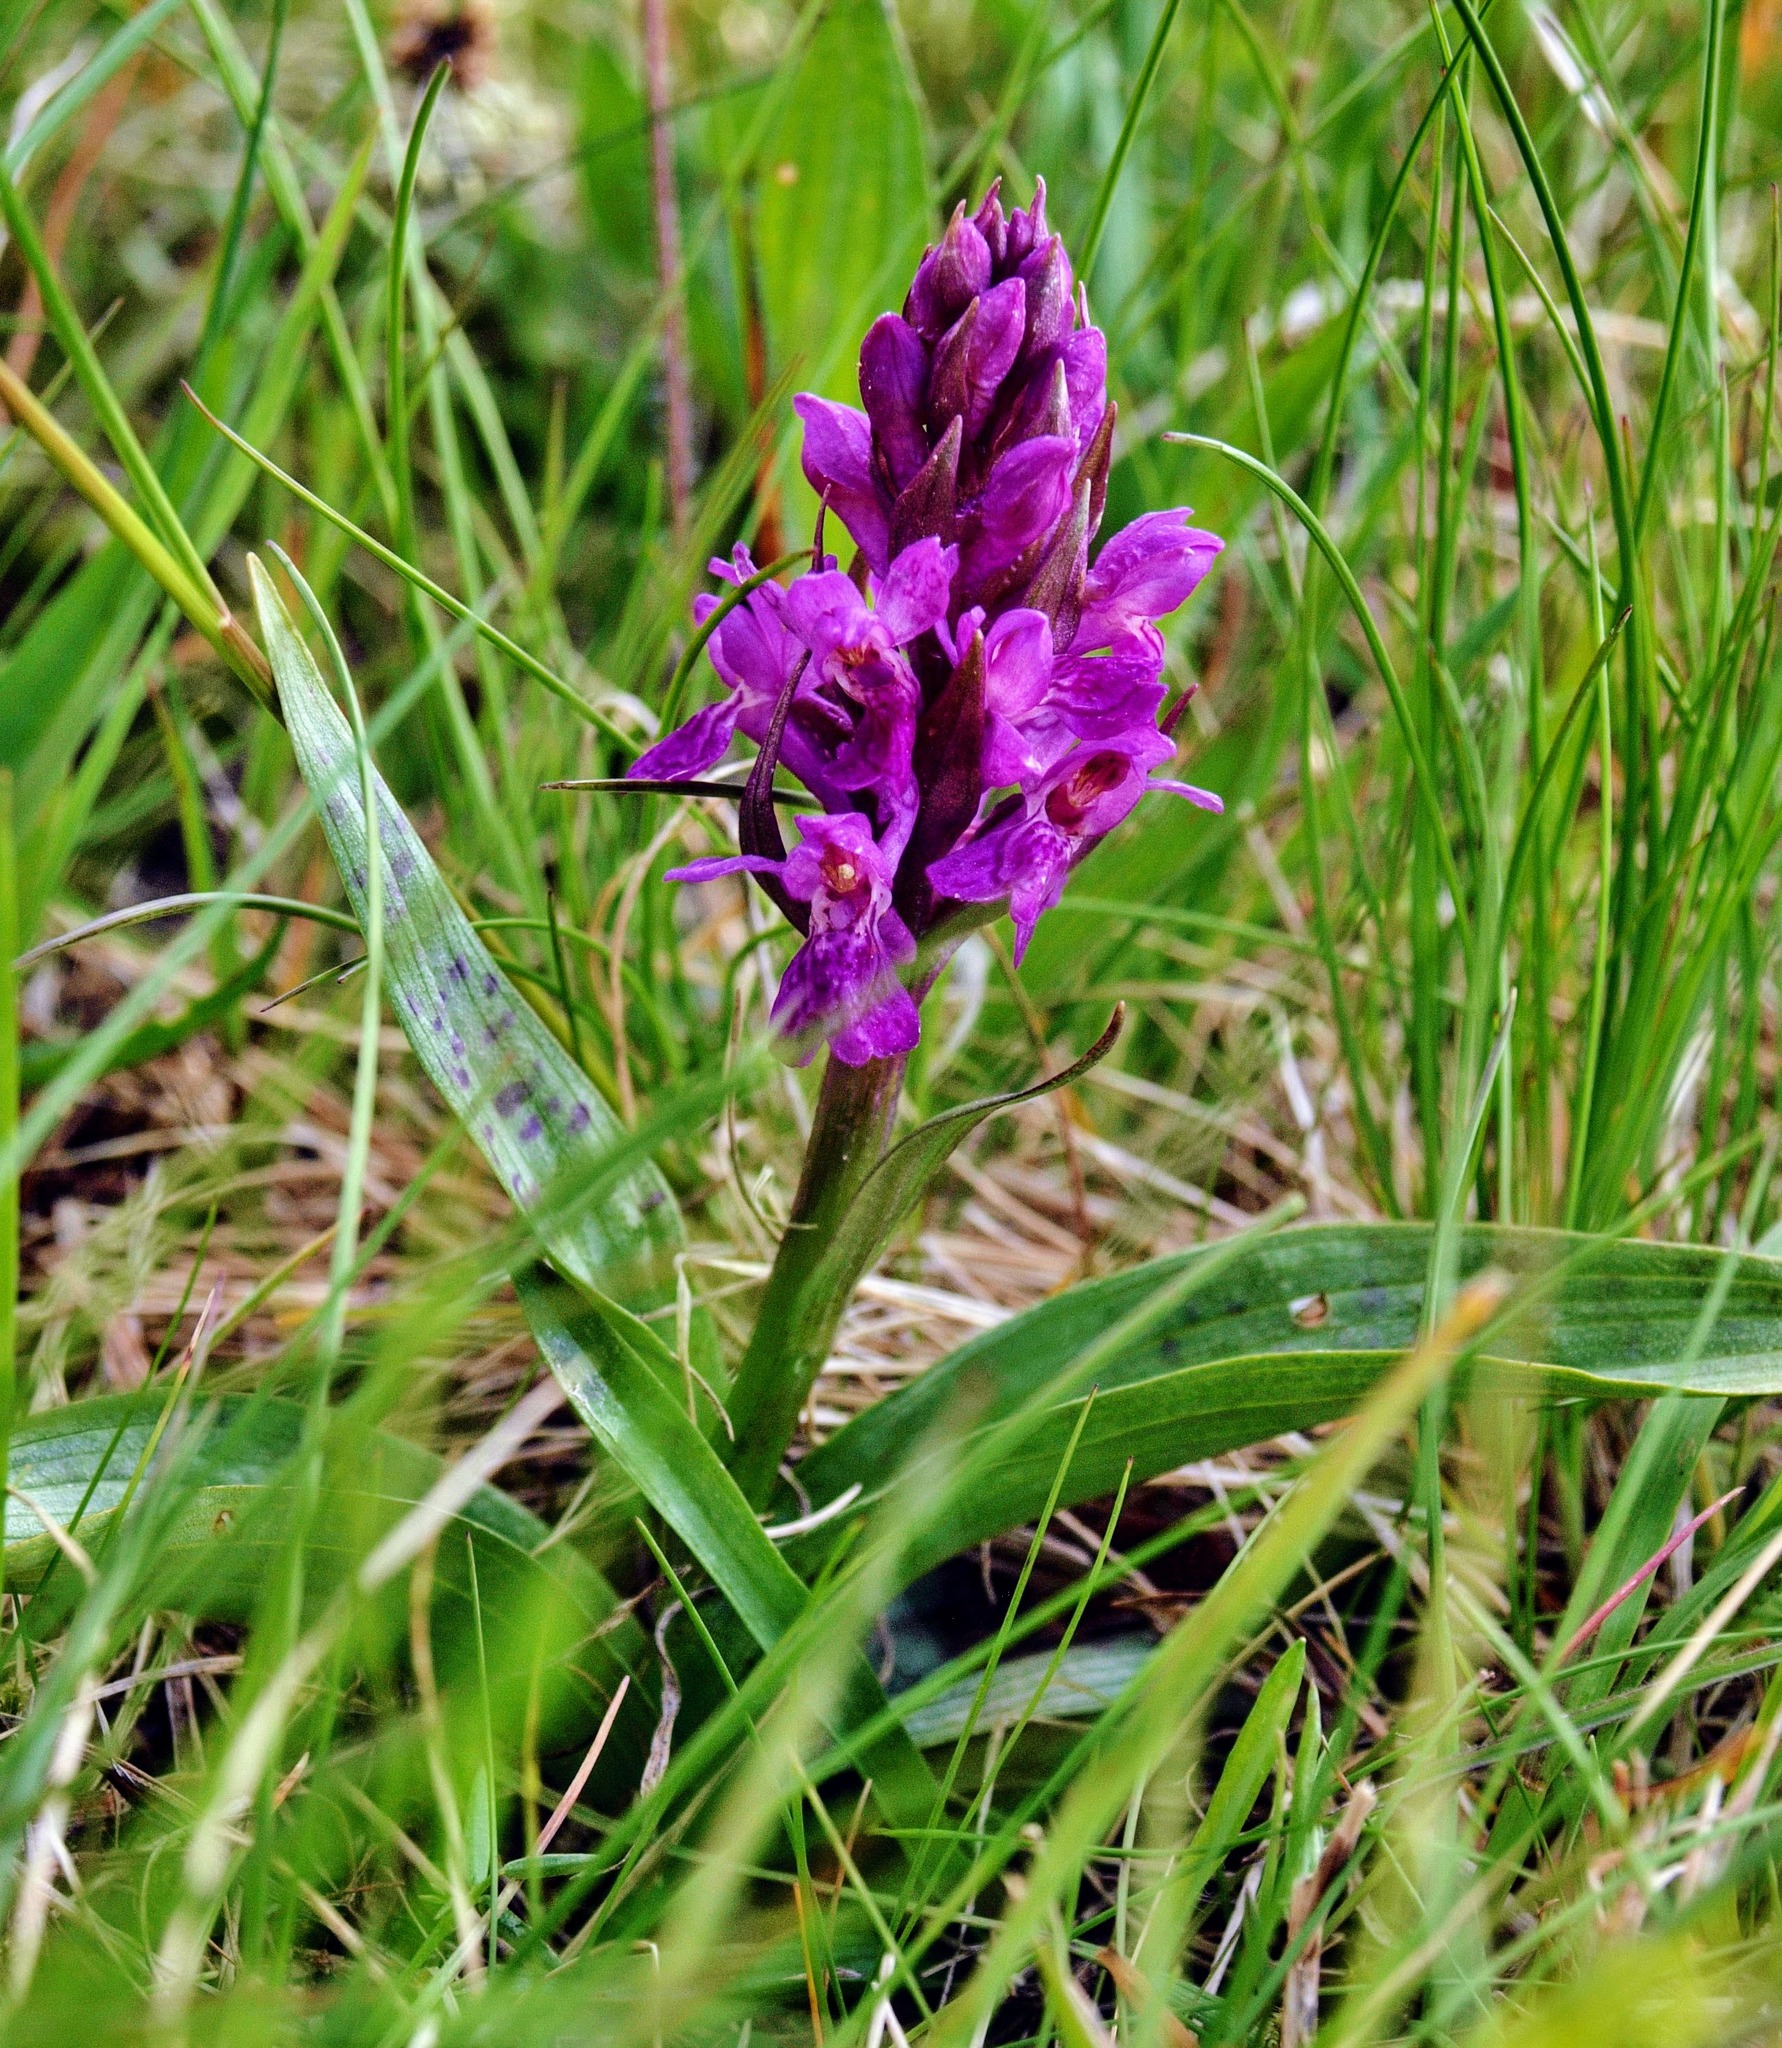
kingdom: Plantae
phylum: Tracheophyta
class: Liliopsida
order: Asparagales
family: Orchidaceae
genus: Dactylorhiza
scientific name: Dactylorhiza majalis
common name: Marsh orchid
